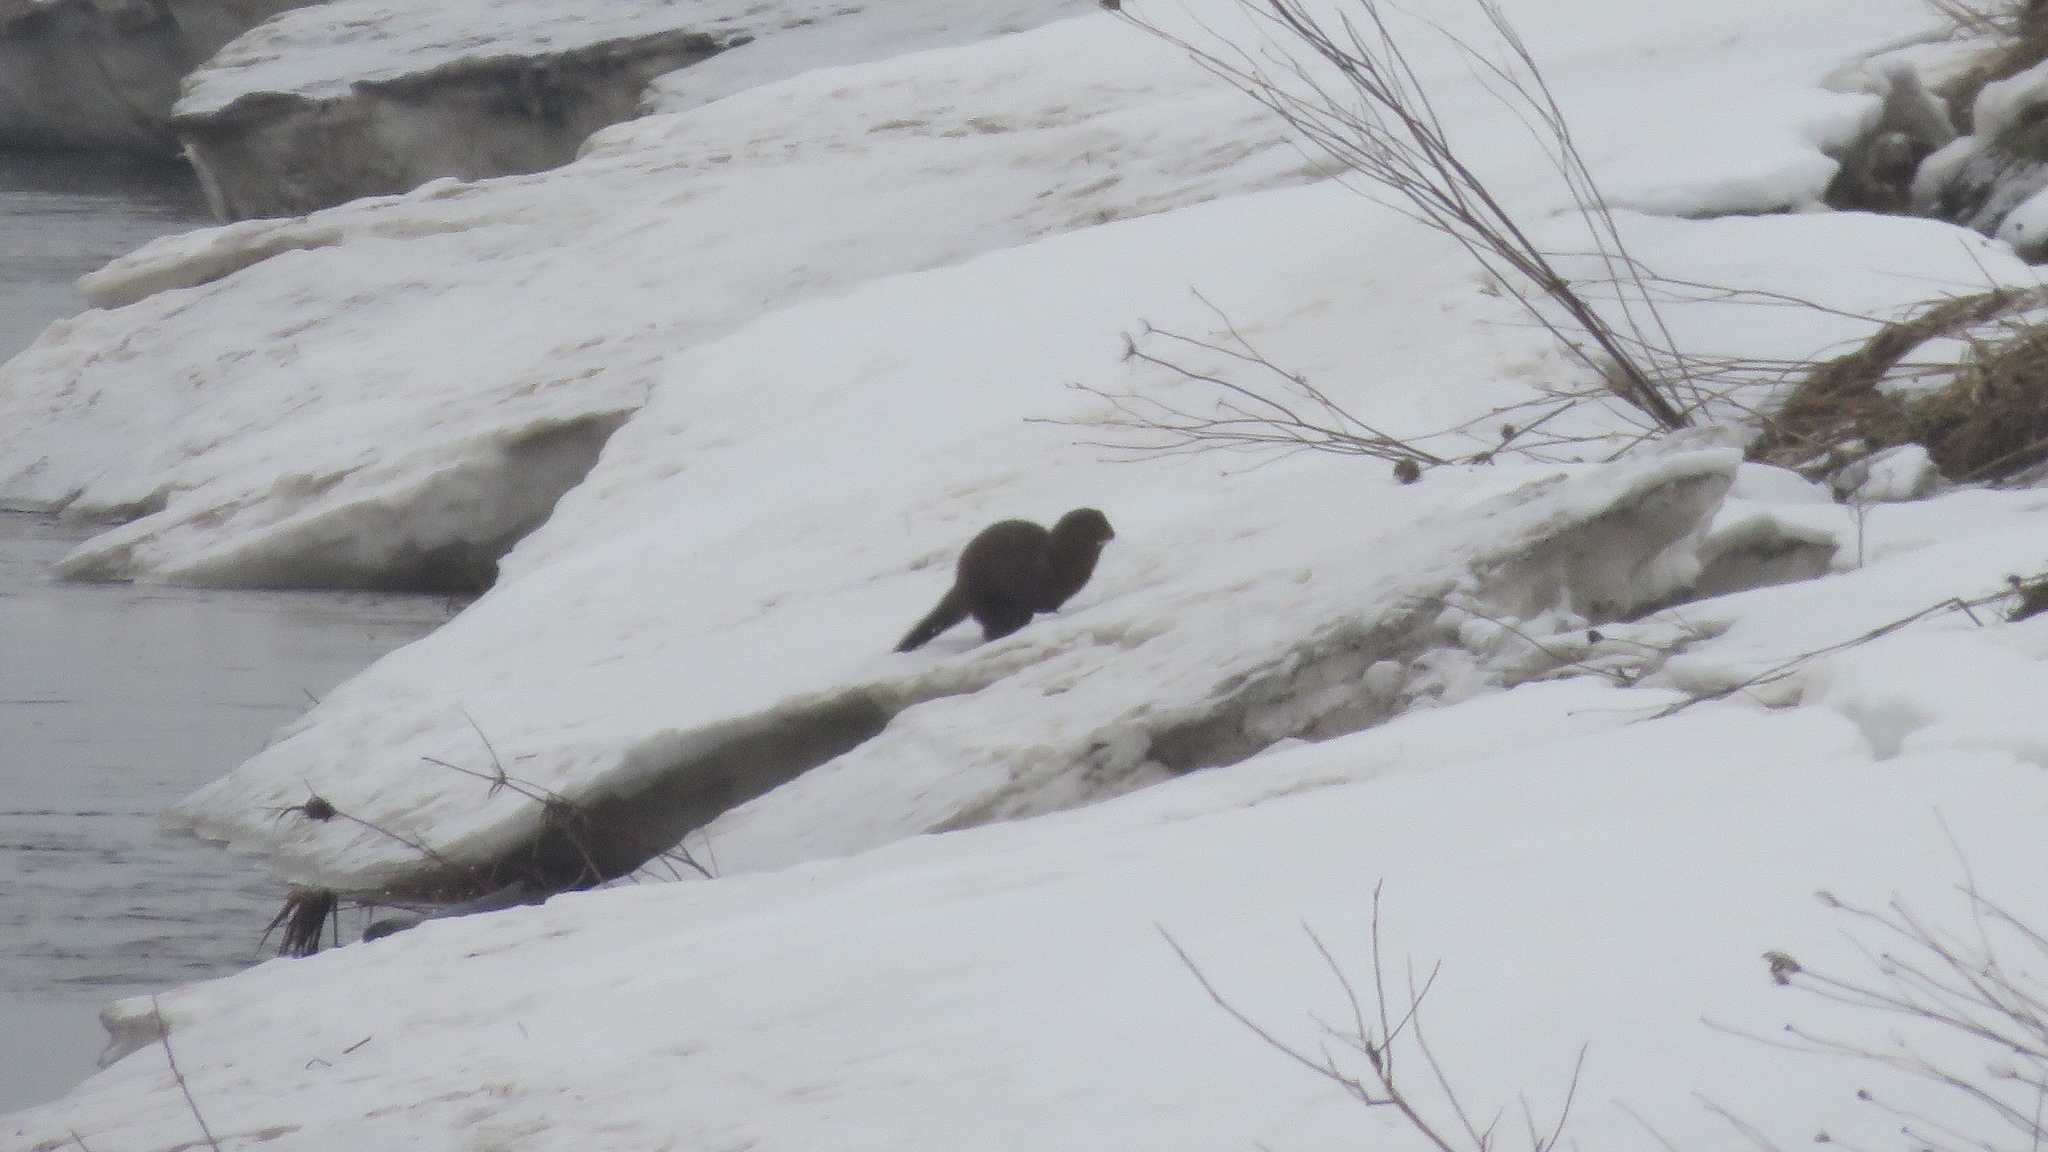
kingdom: Animalia
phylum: Chordata
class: Mammalia
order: Carnivora
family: Mustelidae
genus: Mustela
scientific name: Mustela
